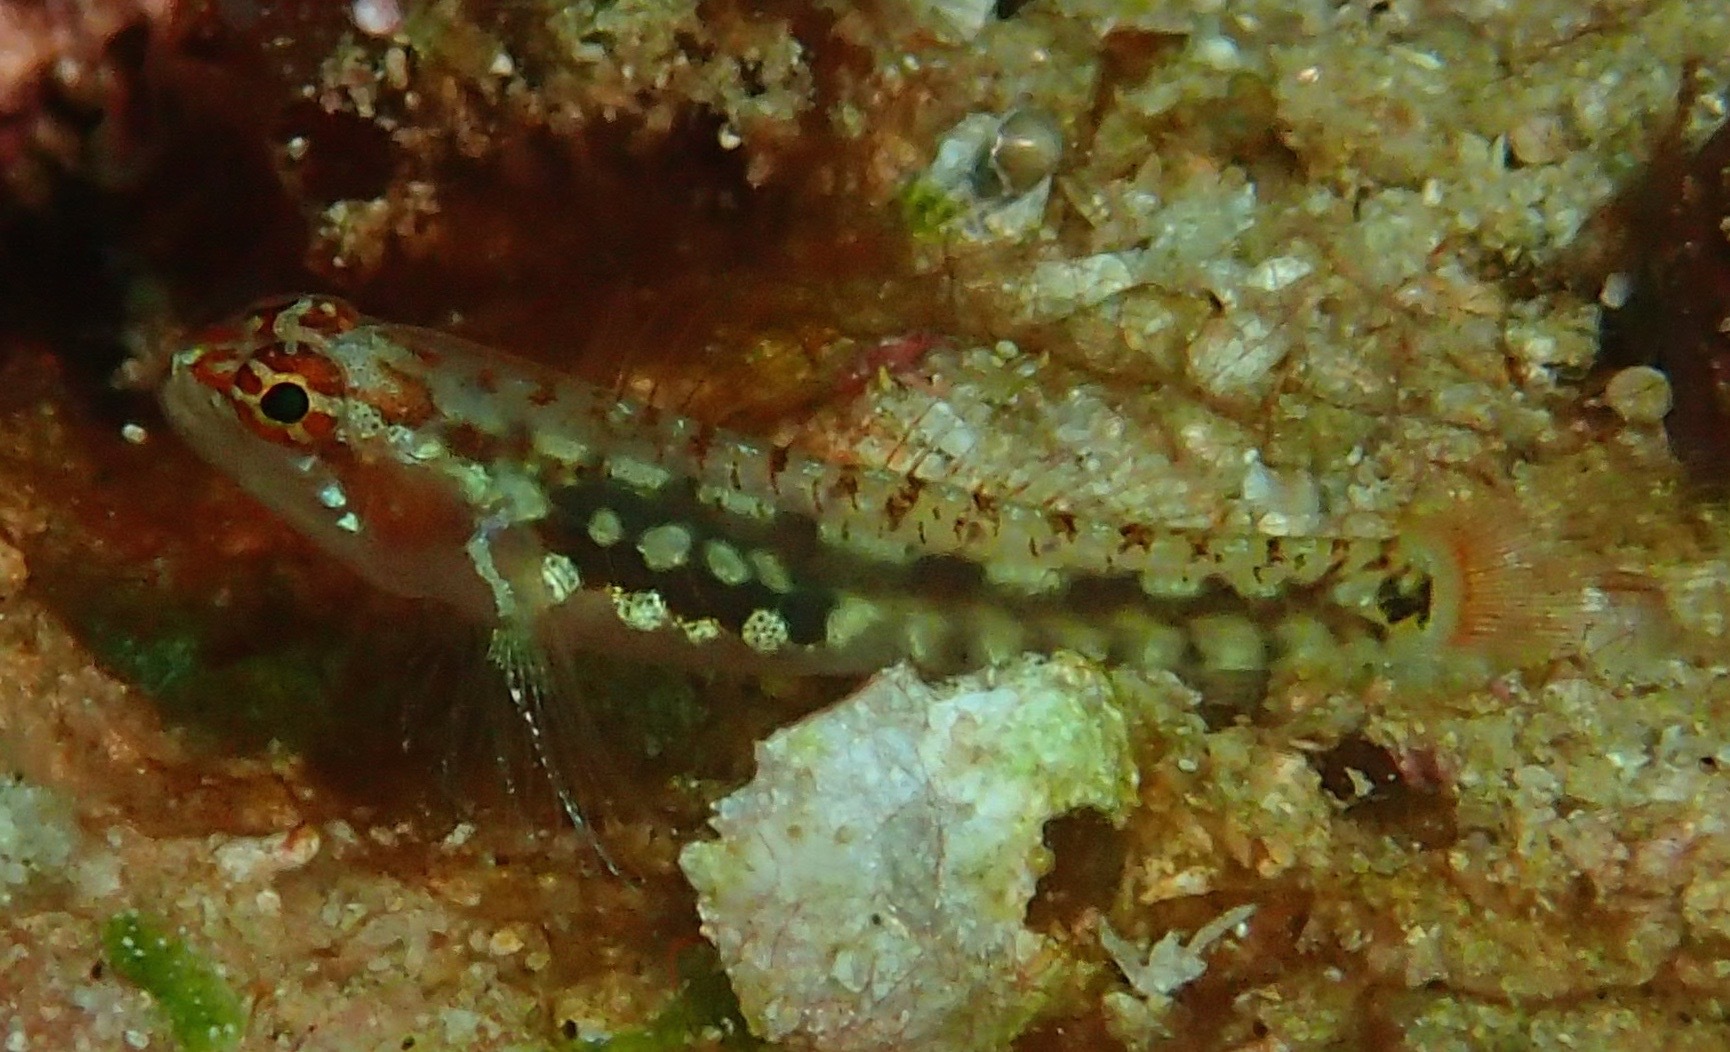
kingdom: Animalia
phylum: Chordata
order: Perciformes
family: Gobiidae
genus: Eviota
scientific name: Eviota longirostris
